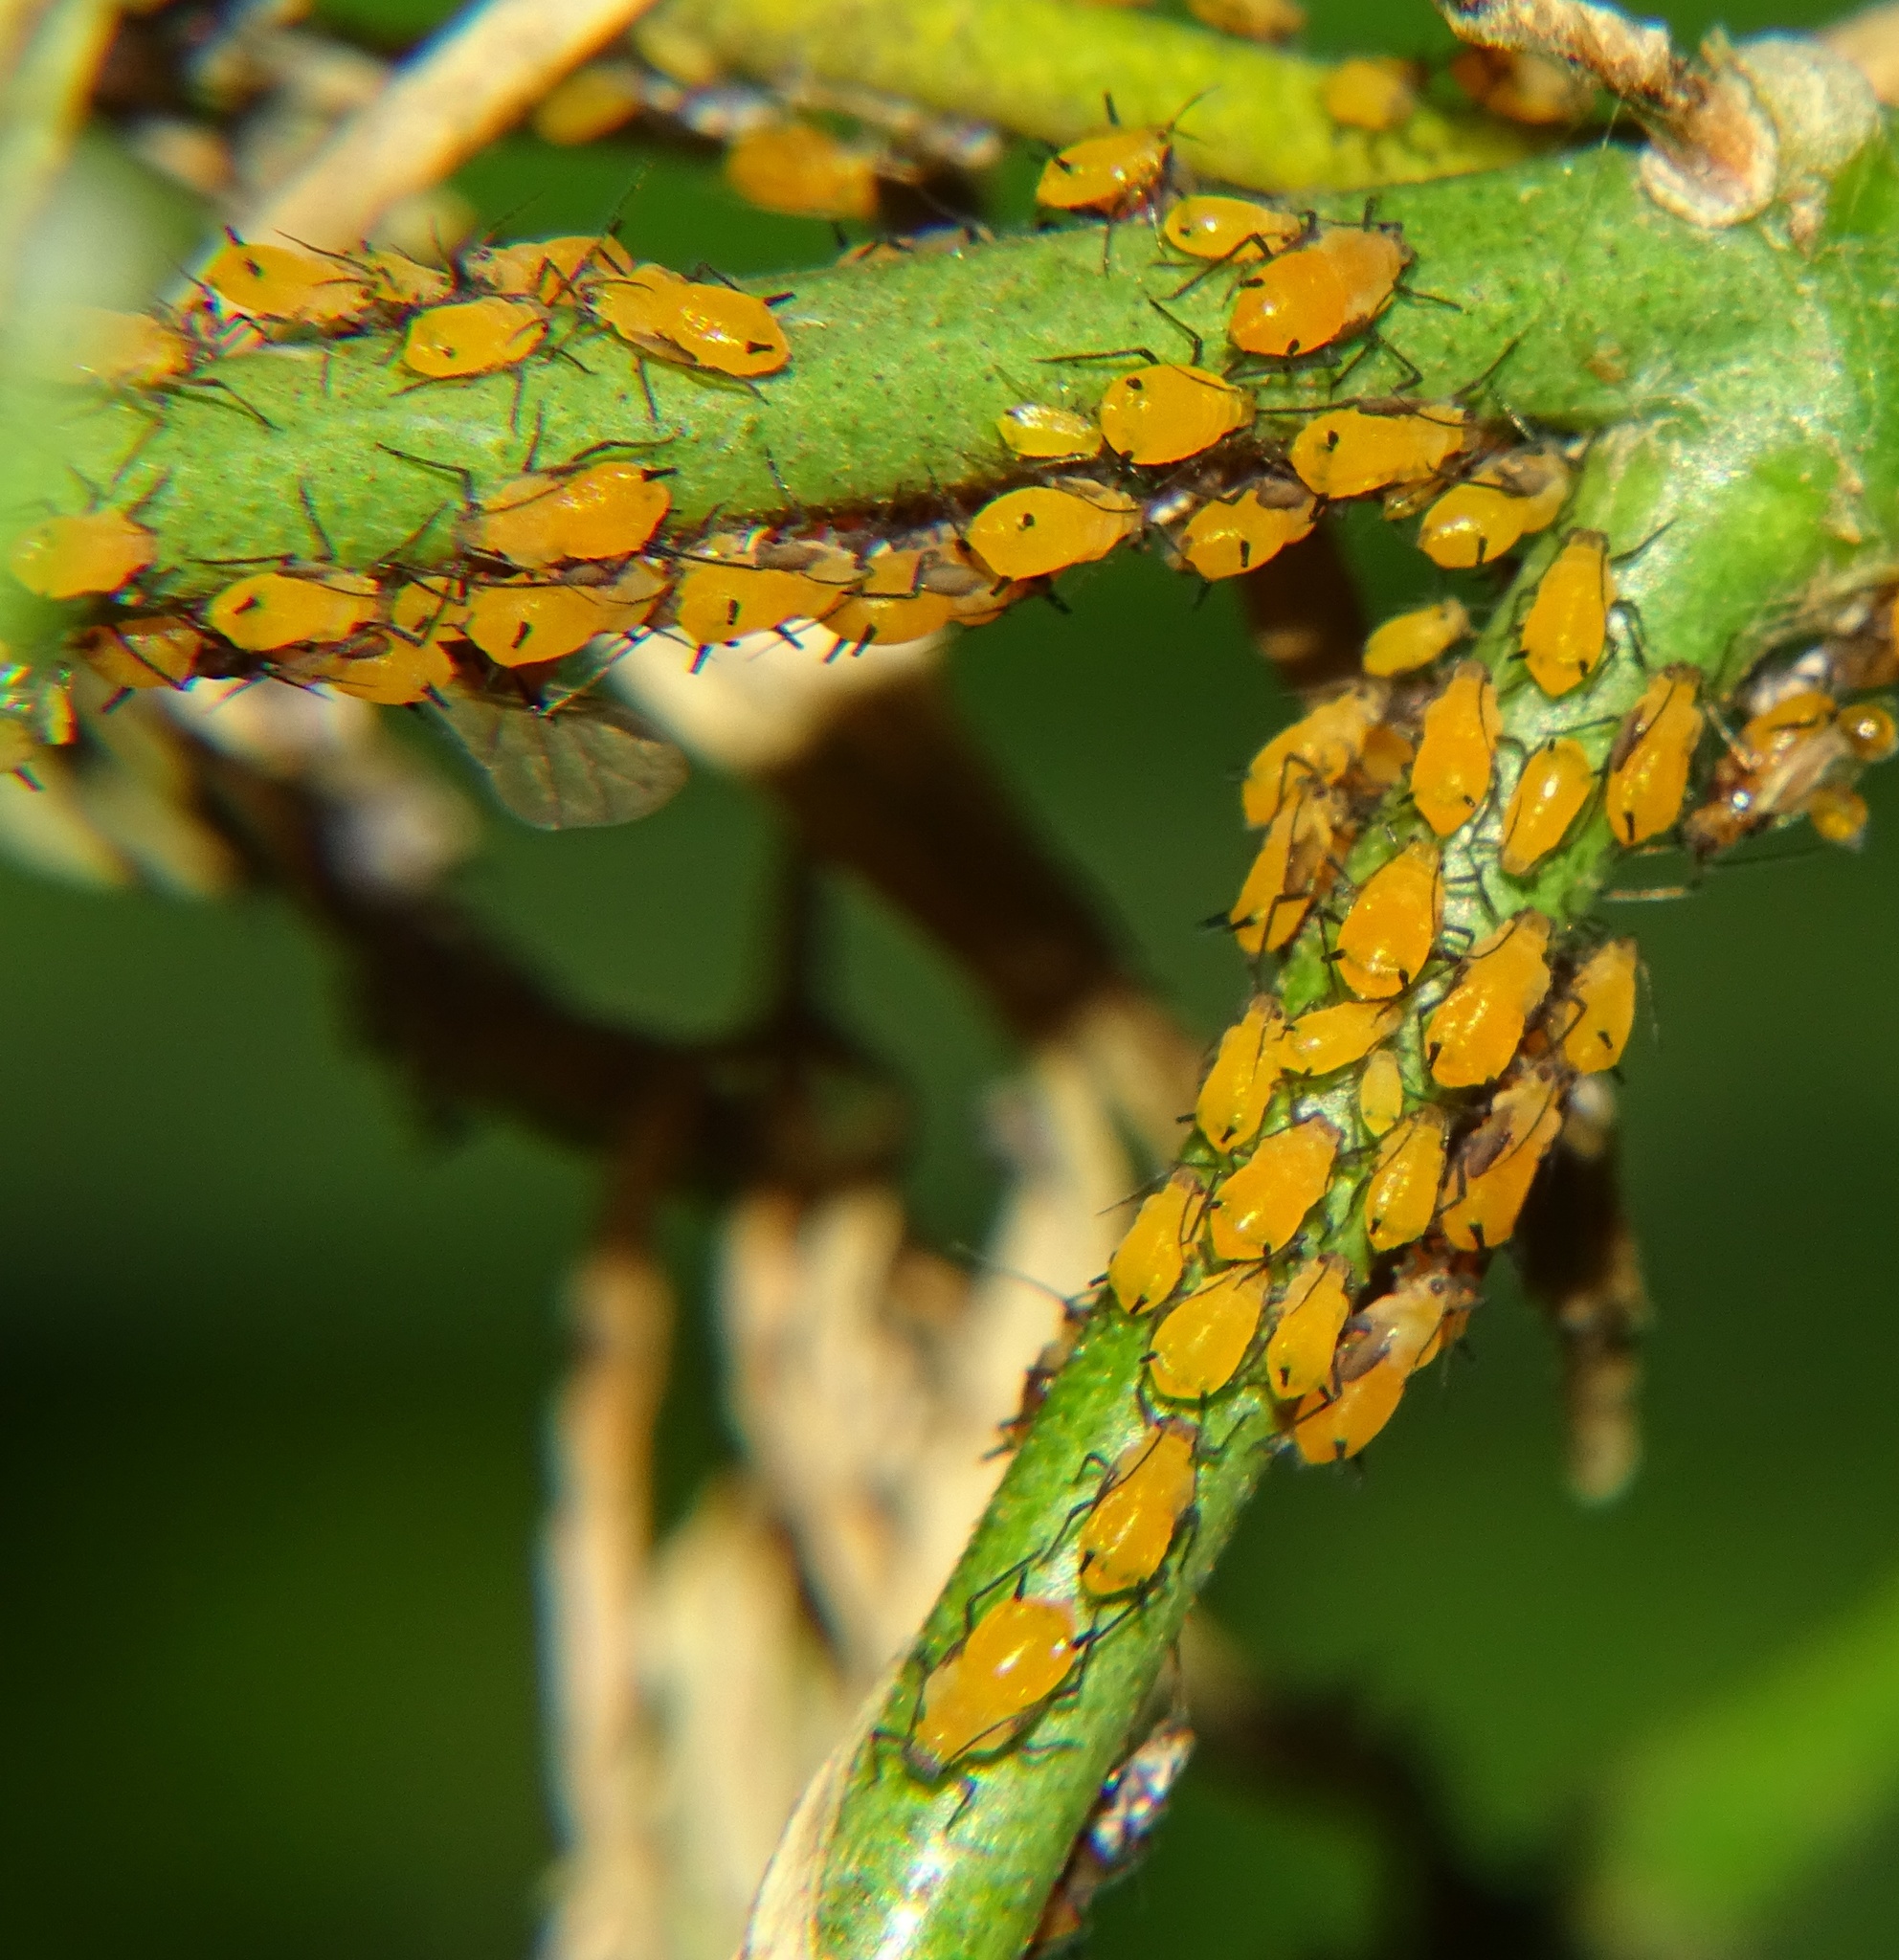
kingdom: Animalia
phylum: Arthropoda
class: Insecta
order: Hemiptera
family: Aphididae
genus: Aphis
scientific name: Aphis nerii
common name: Oleander aphid
